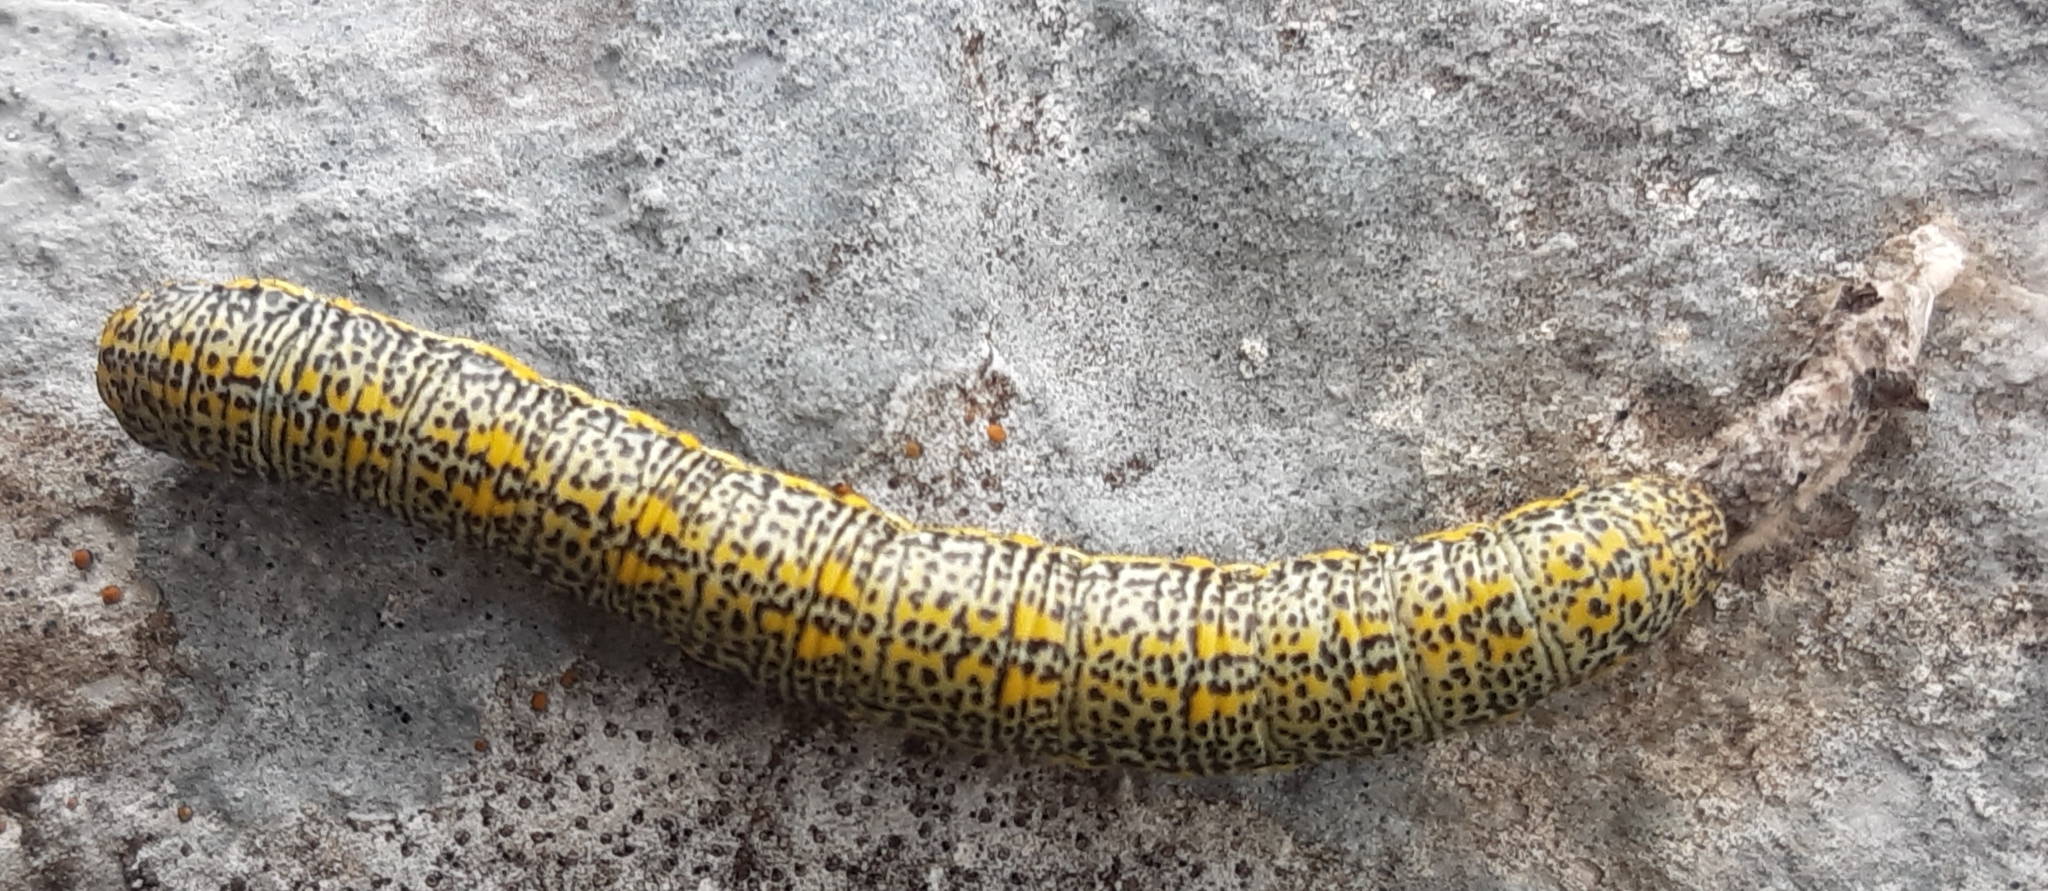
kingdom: Animalia
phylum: Arthropoda
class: Insecta
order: Lepidoptera
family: Geometridae
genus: Lycia
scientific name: Lycia alpina
